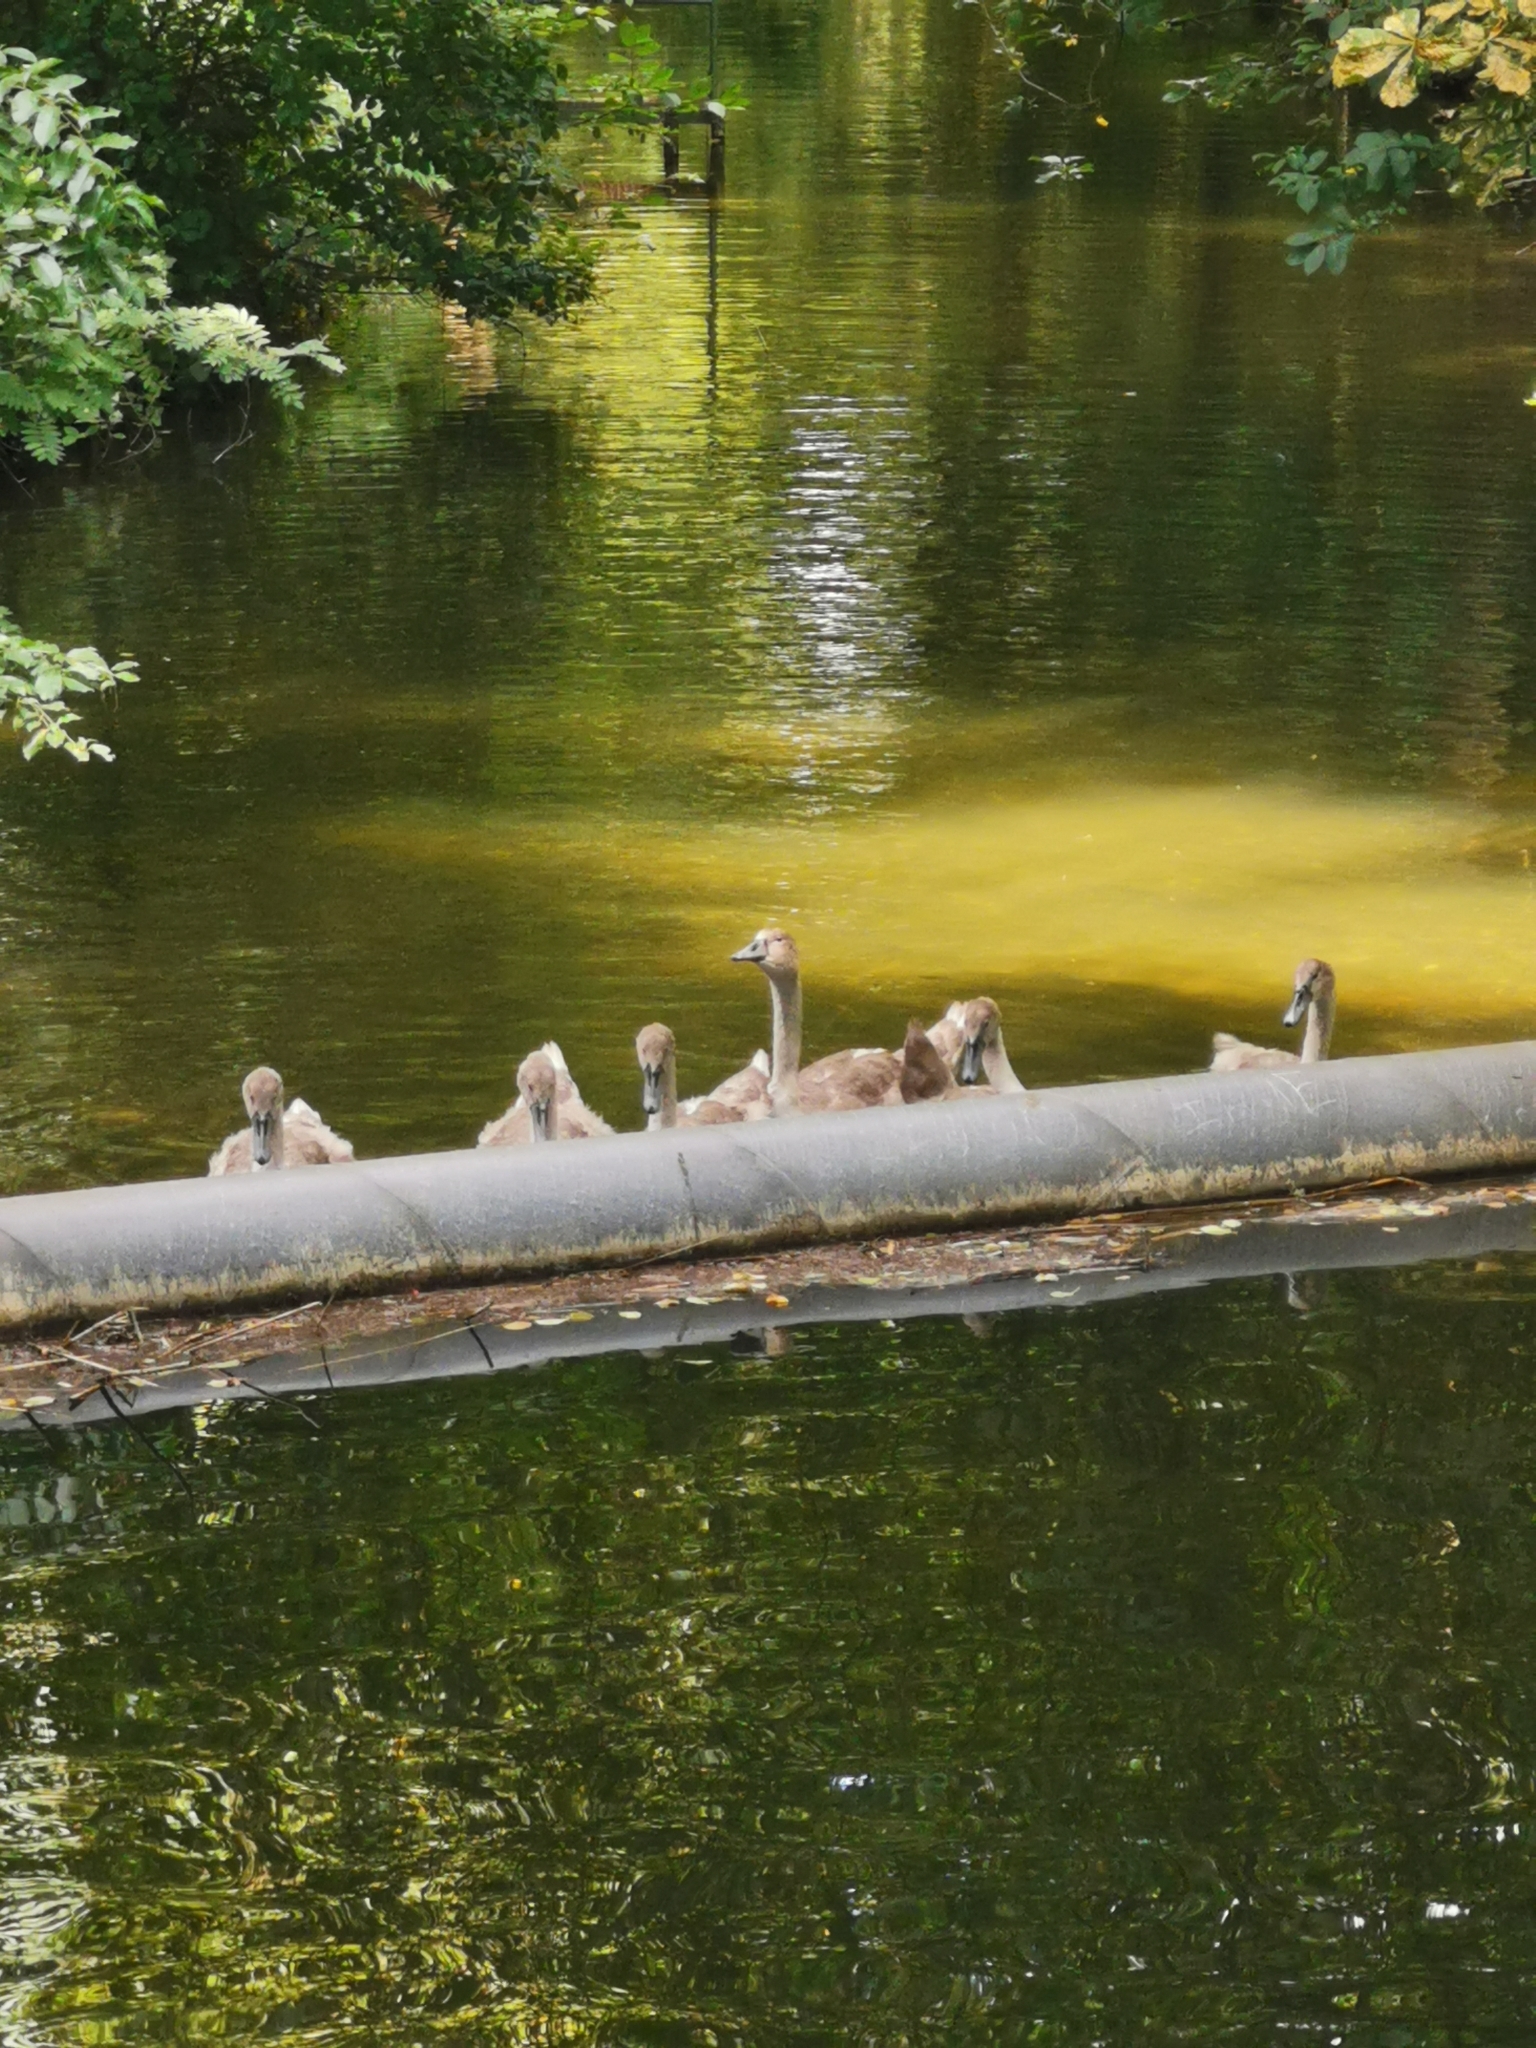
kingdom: Animalia
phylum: Chordata
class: Aves
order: Anseriformes
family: Anatidae
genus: Cygnus
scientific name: Cygnus olor
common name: Mute swan
